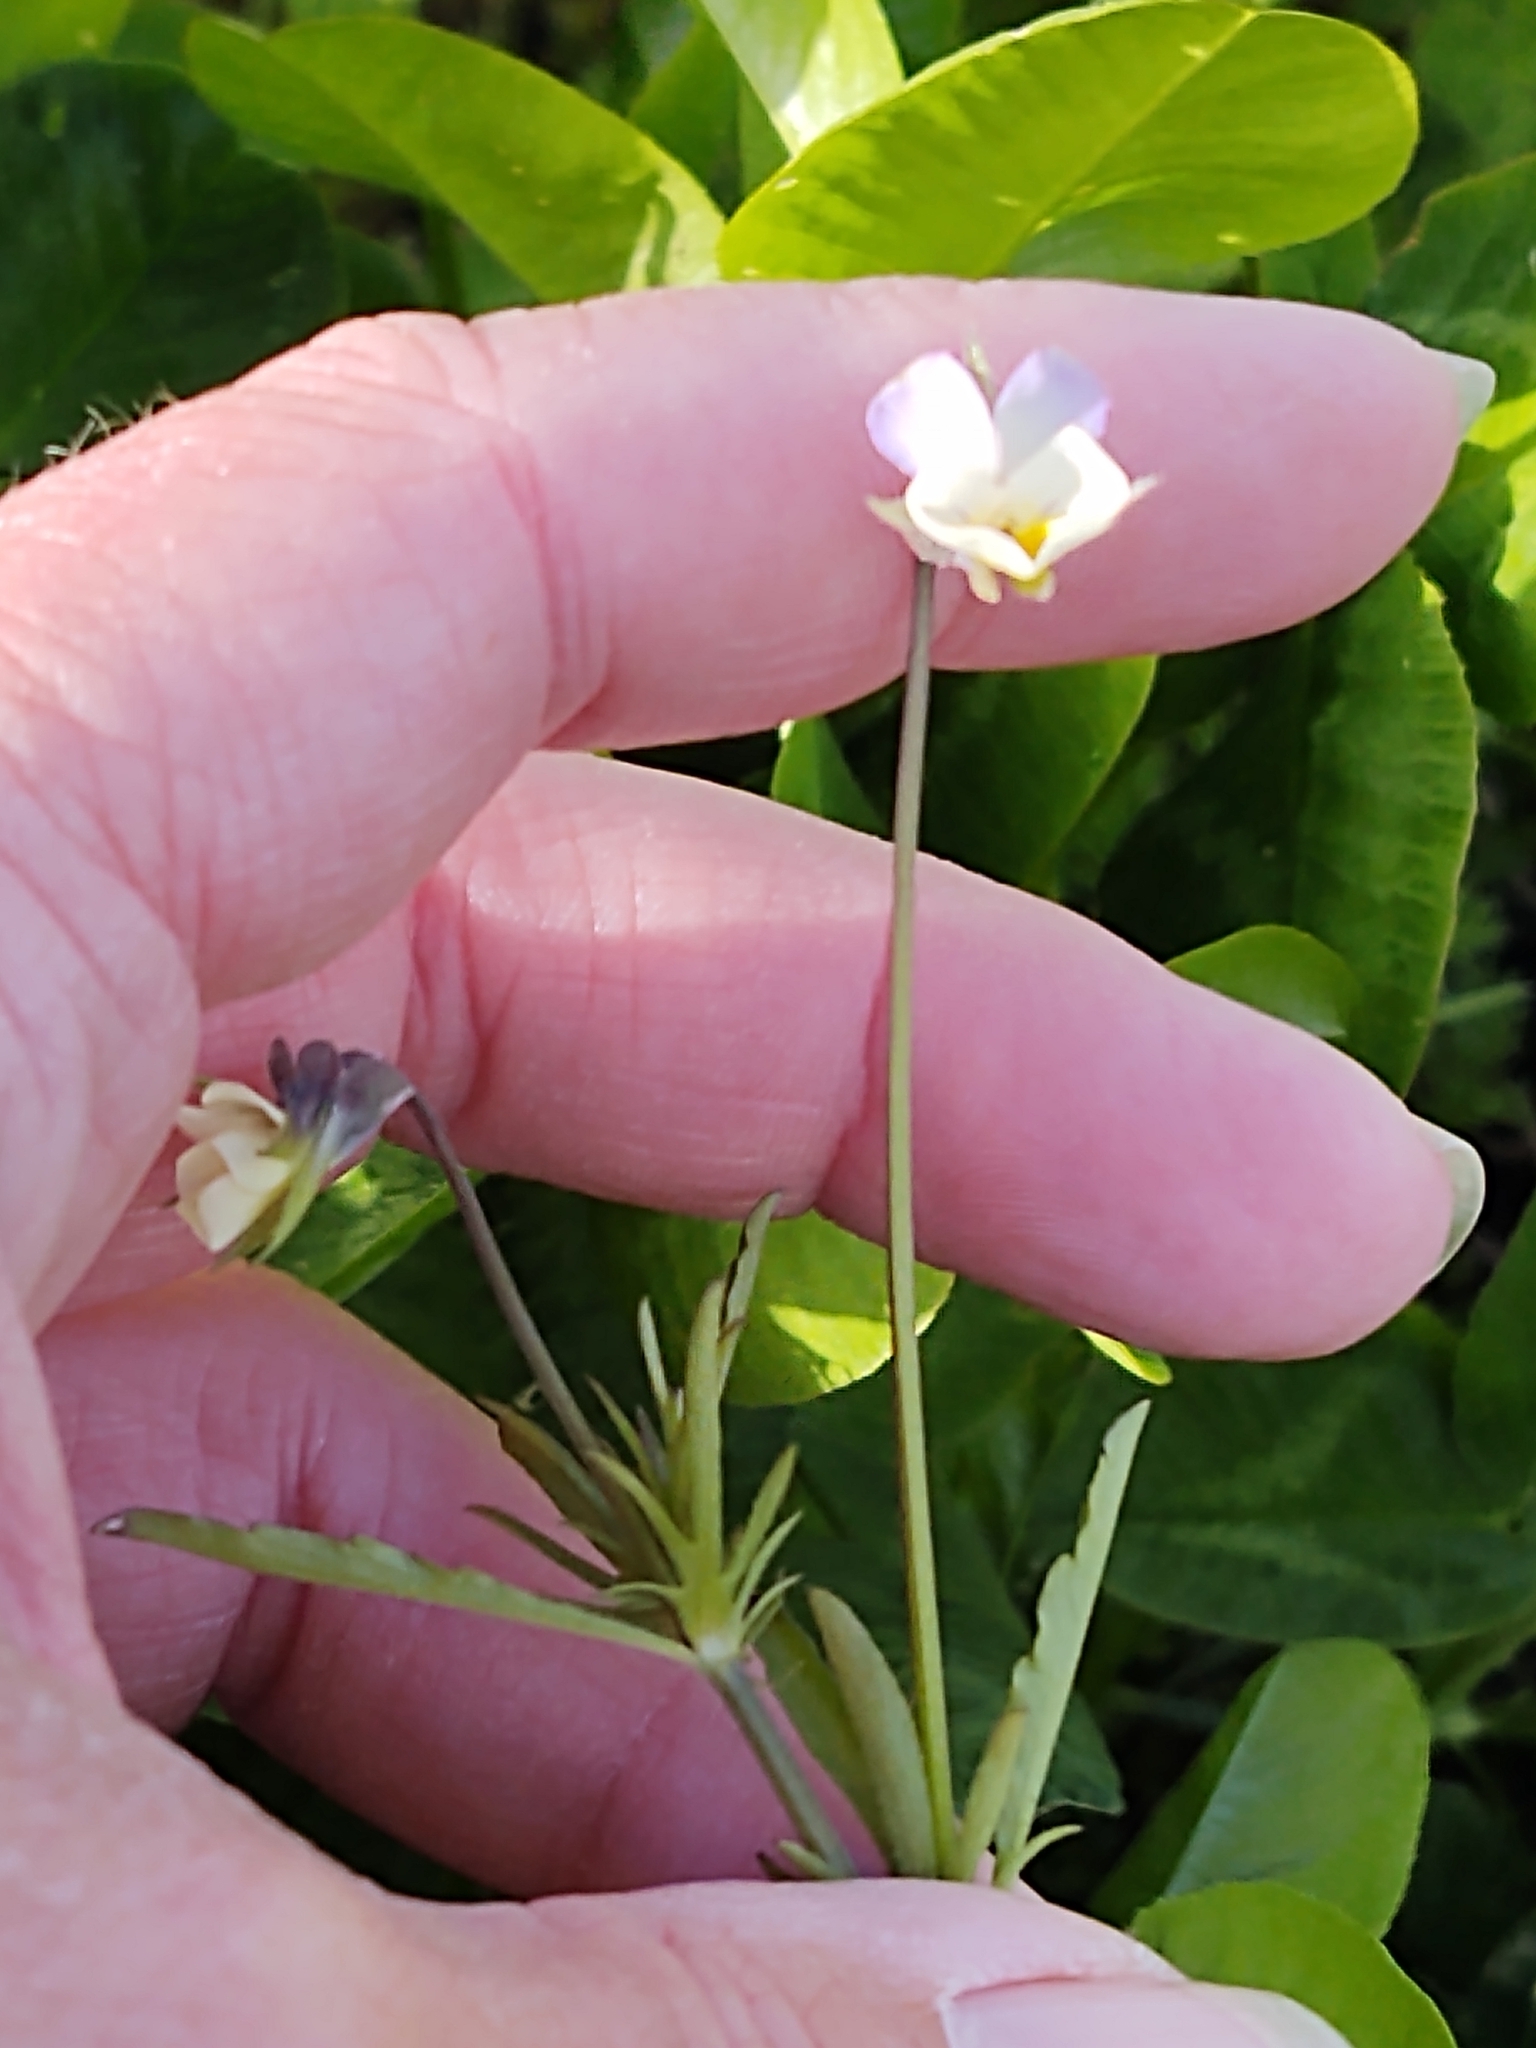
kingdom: Plantae
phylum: Tracheophyta
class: Magnoliopsida
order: Malpighiales
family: Violaceae
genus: Viola
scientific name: Viola arvensis
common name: Field pansy
